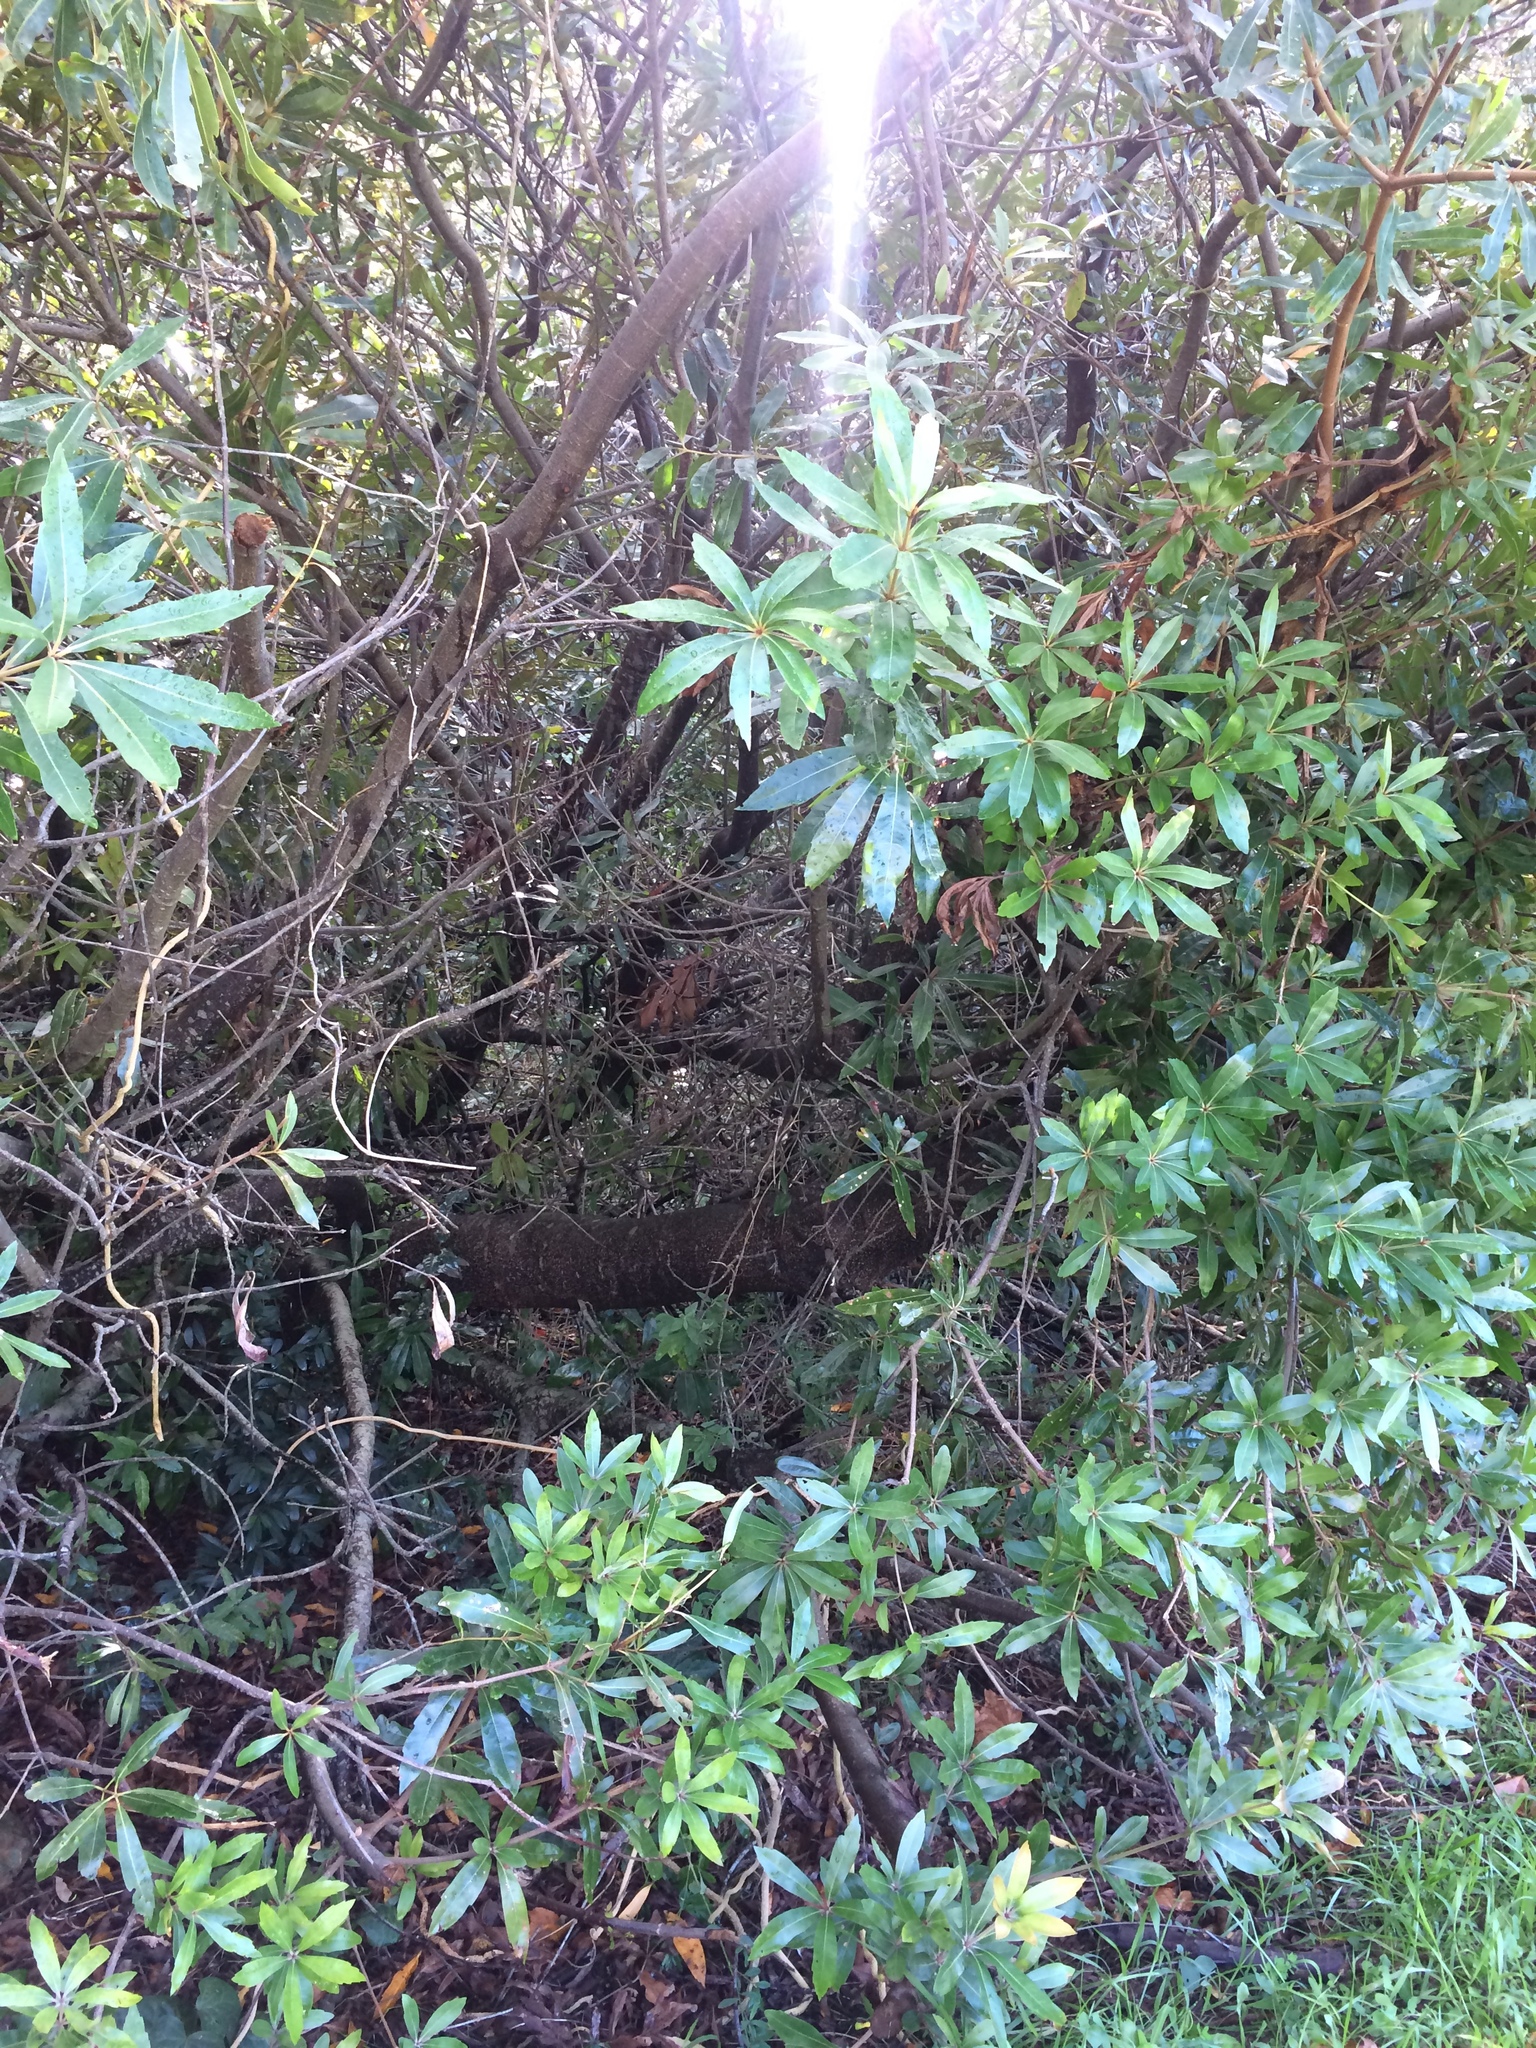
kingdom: Plantae
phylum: Tracheophyta
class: Magnoliopsida
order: Proteales
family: Proteaceae
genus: Brabejum
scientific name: Brabejum stellatifolium
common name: Wild almond
